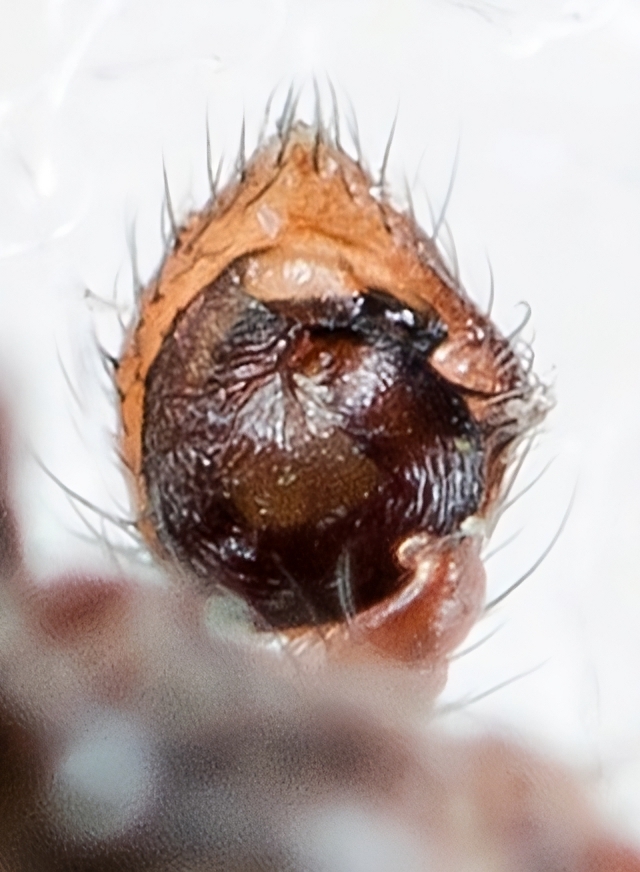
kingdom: Animalia
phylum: Arthropoda
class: Arachnida
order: Araneae
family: Thomisidae
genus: Psammitis
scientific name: Psammitis minor
